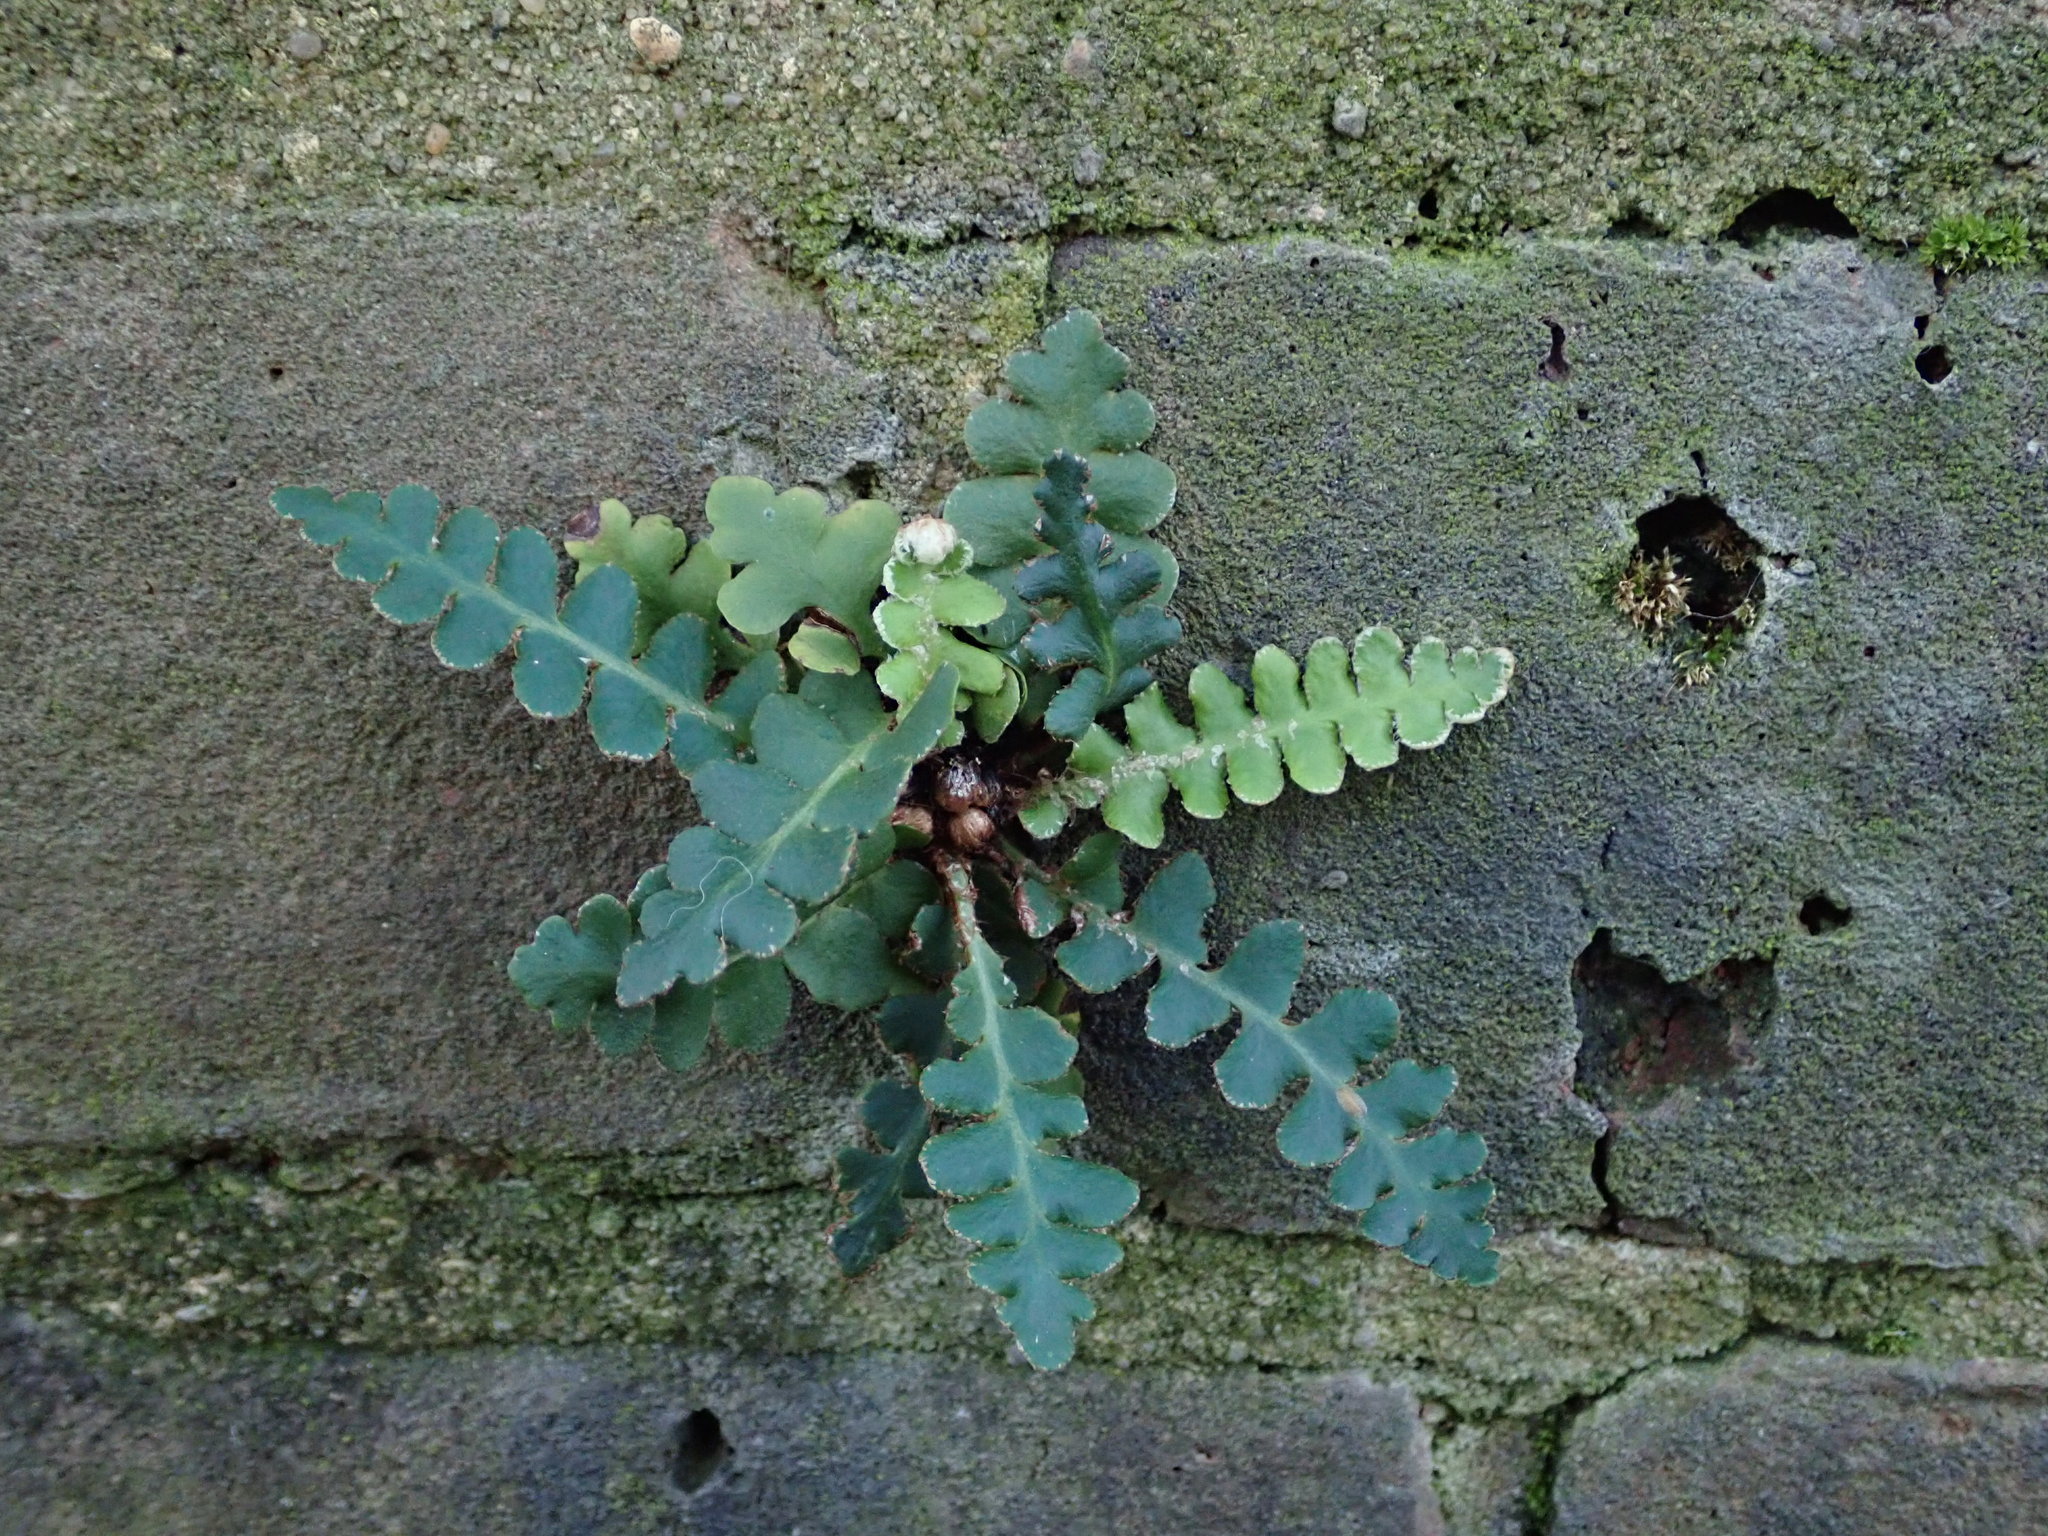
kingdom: Plantae
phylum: Tracheophyta
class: Polypodiopsida
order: Polypodiales
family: Aspleniaceae
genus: Asplenium
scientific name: Asplenium ceterach
